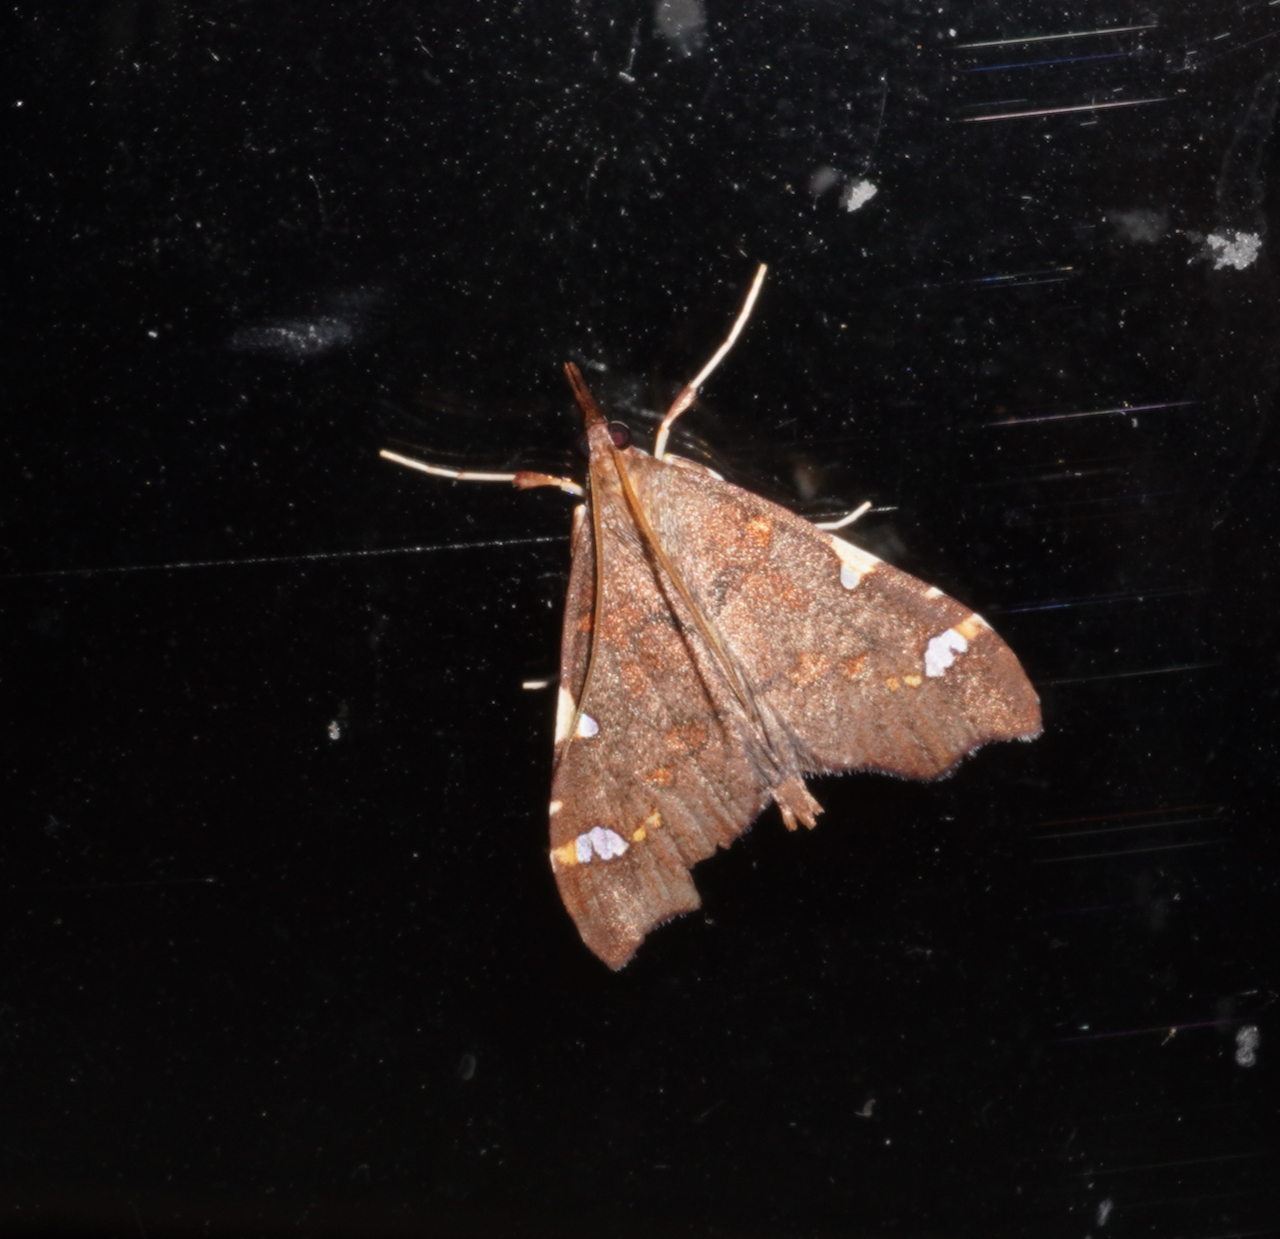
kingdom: Animalia
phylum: Arthropoda
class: Insecta
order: Lepidoptera
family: Crambidae
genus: Deana
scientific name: Deana hybreasalis
